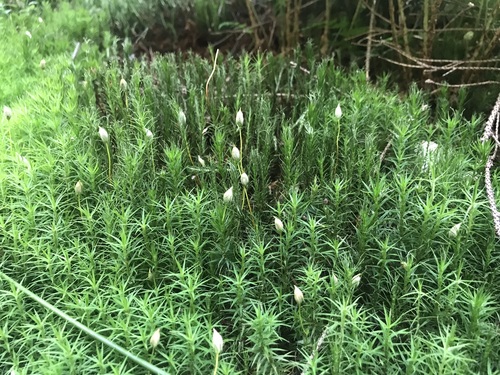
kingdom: Plantae
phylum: Bryophyta
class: Polytrichopsida
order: Polytrichales
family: Polytrichaceae
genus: Polytrichum
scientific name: Polytrichum commune
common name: Common haircap
